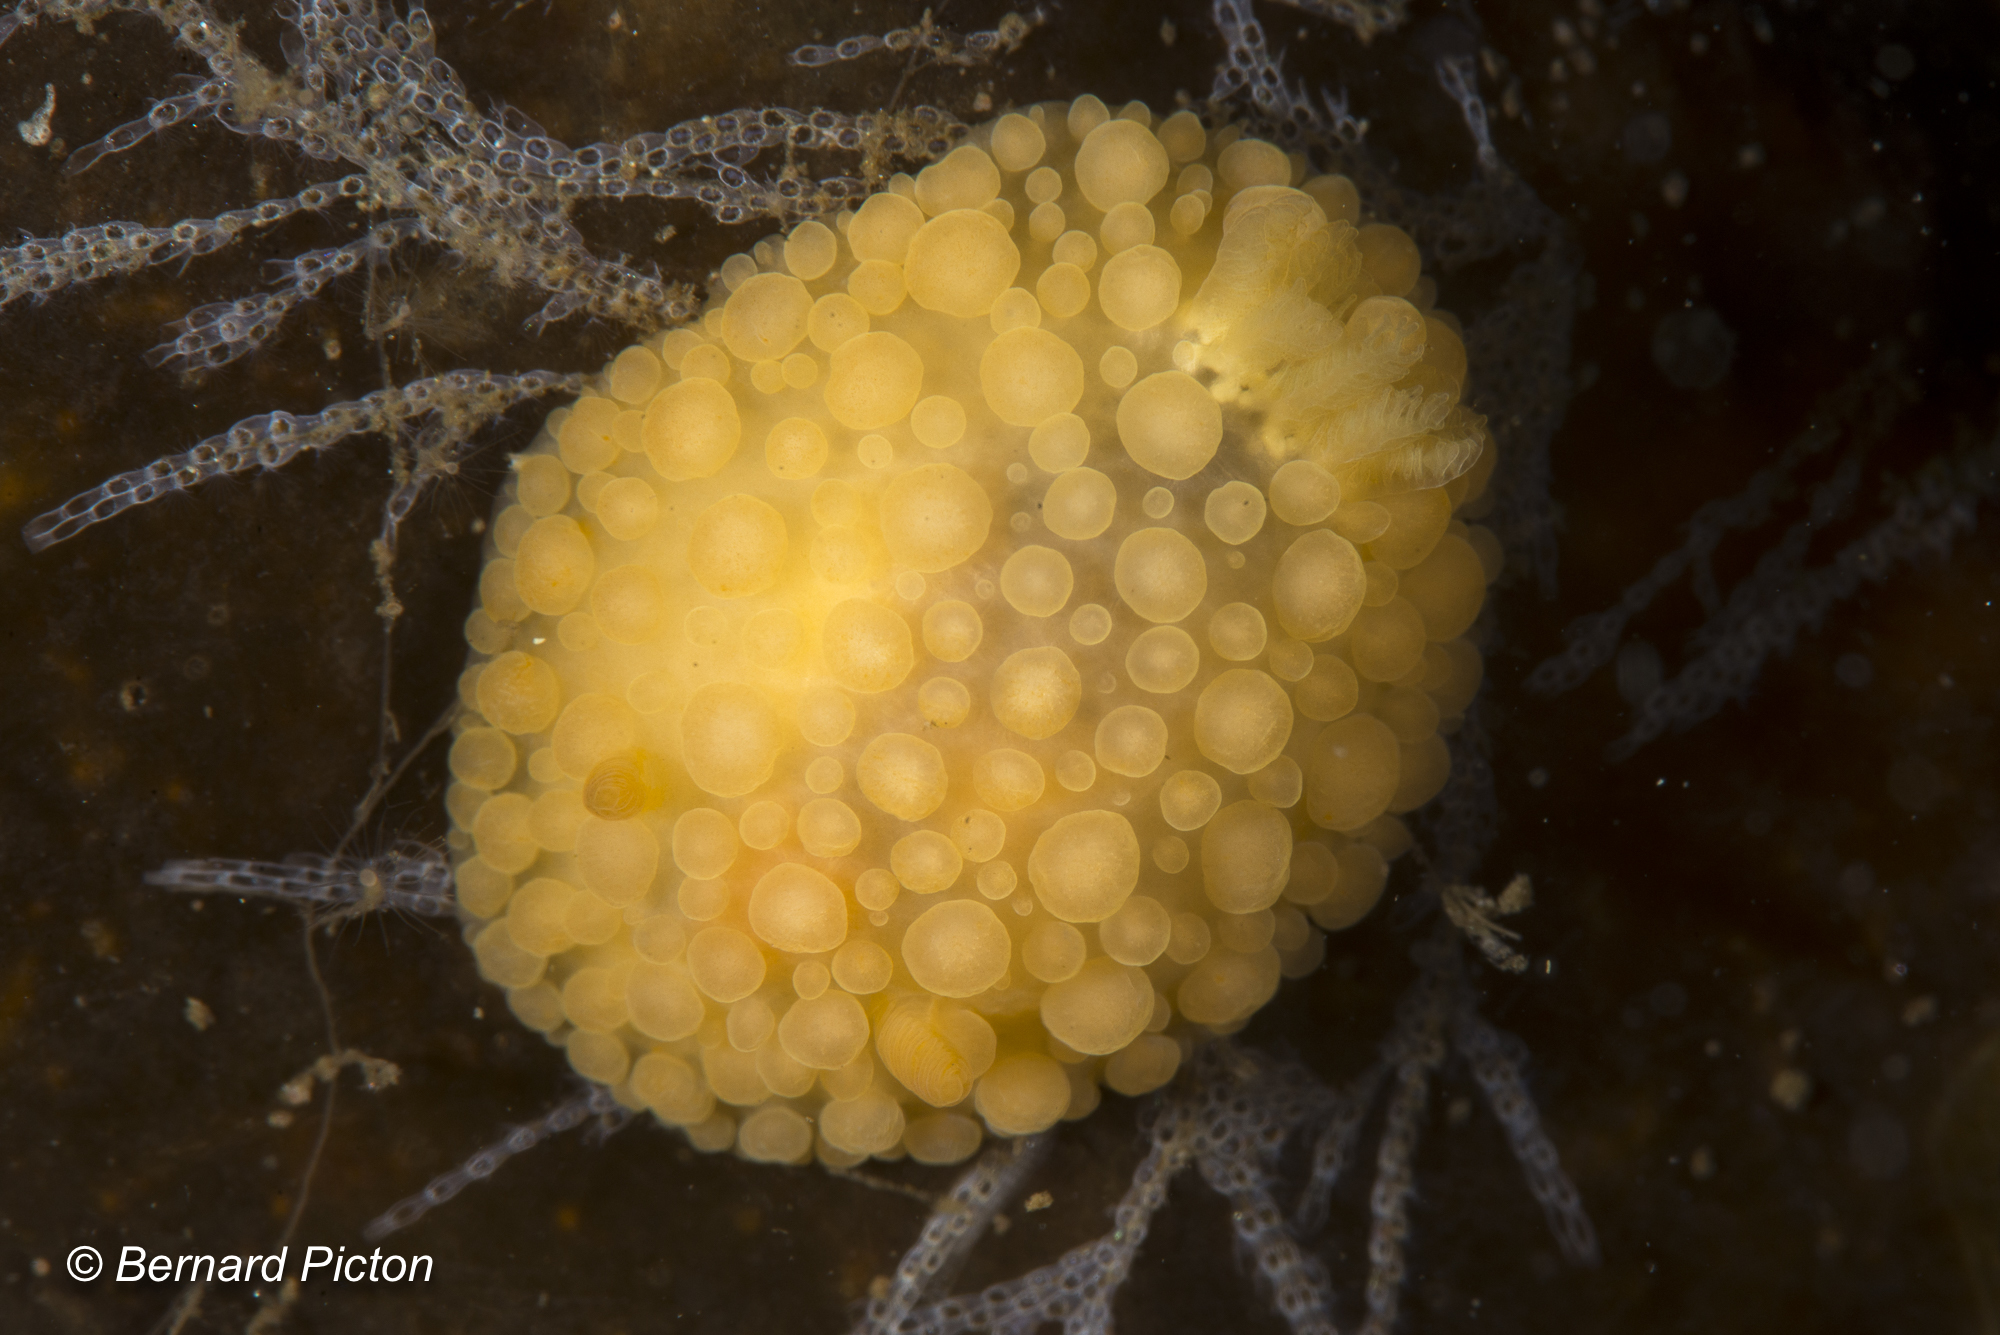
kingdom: Animalia
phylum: Mollusca
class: Gastropoda
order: Nudibranchia
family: Onchidorididae
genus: Adalaria
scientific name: Adalaria loveni
